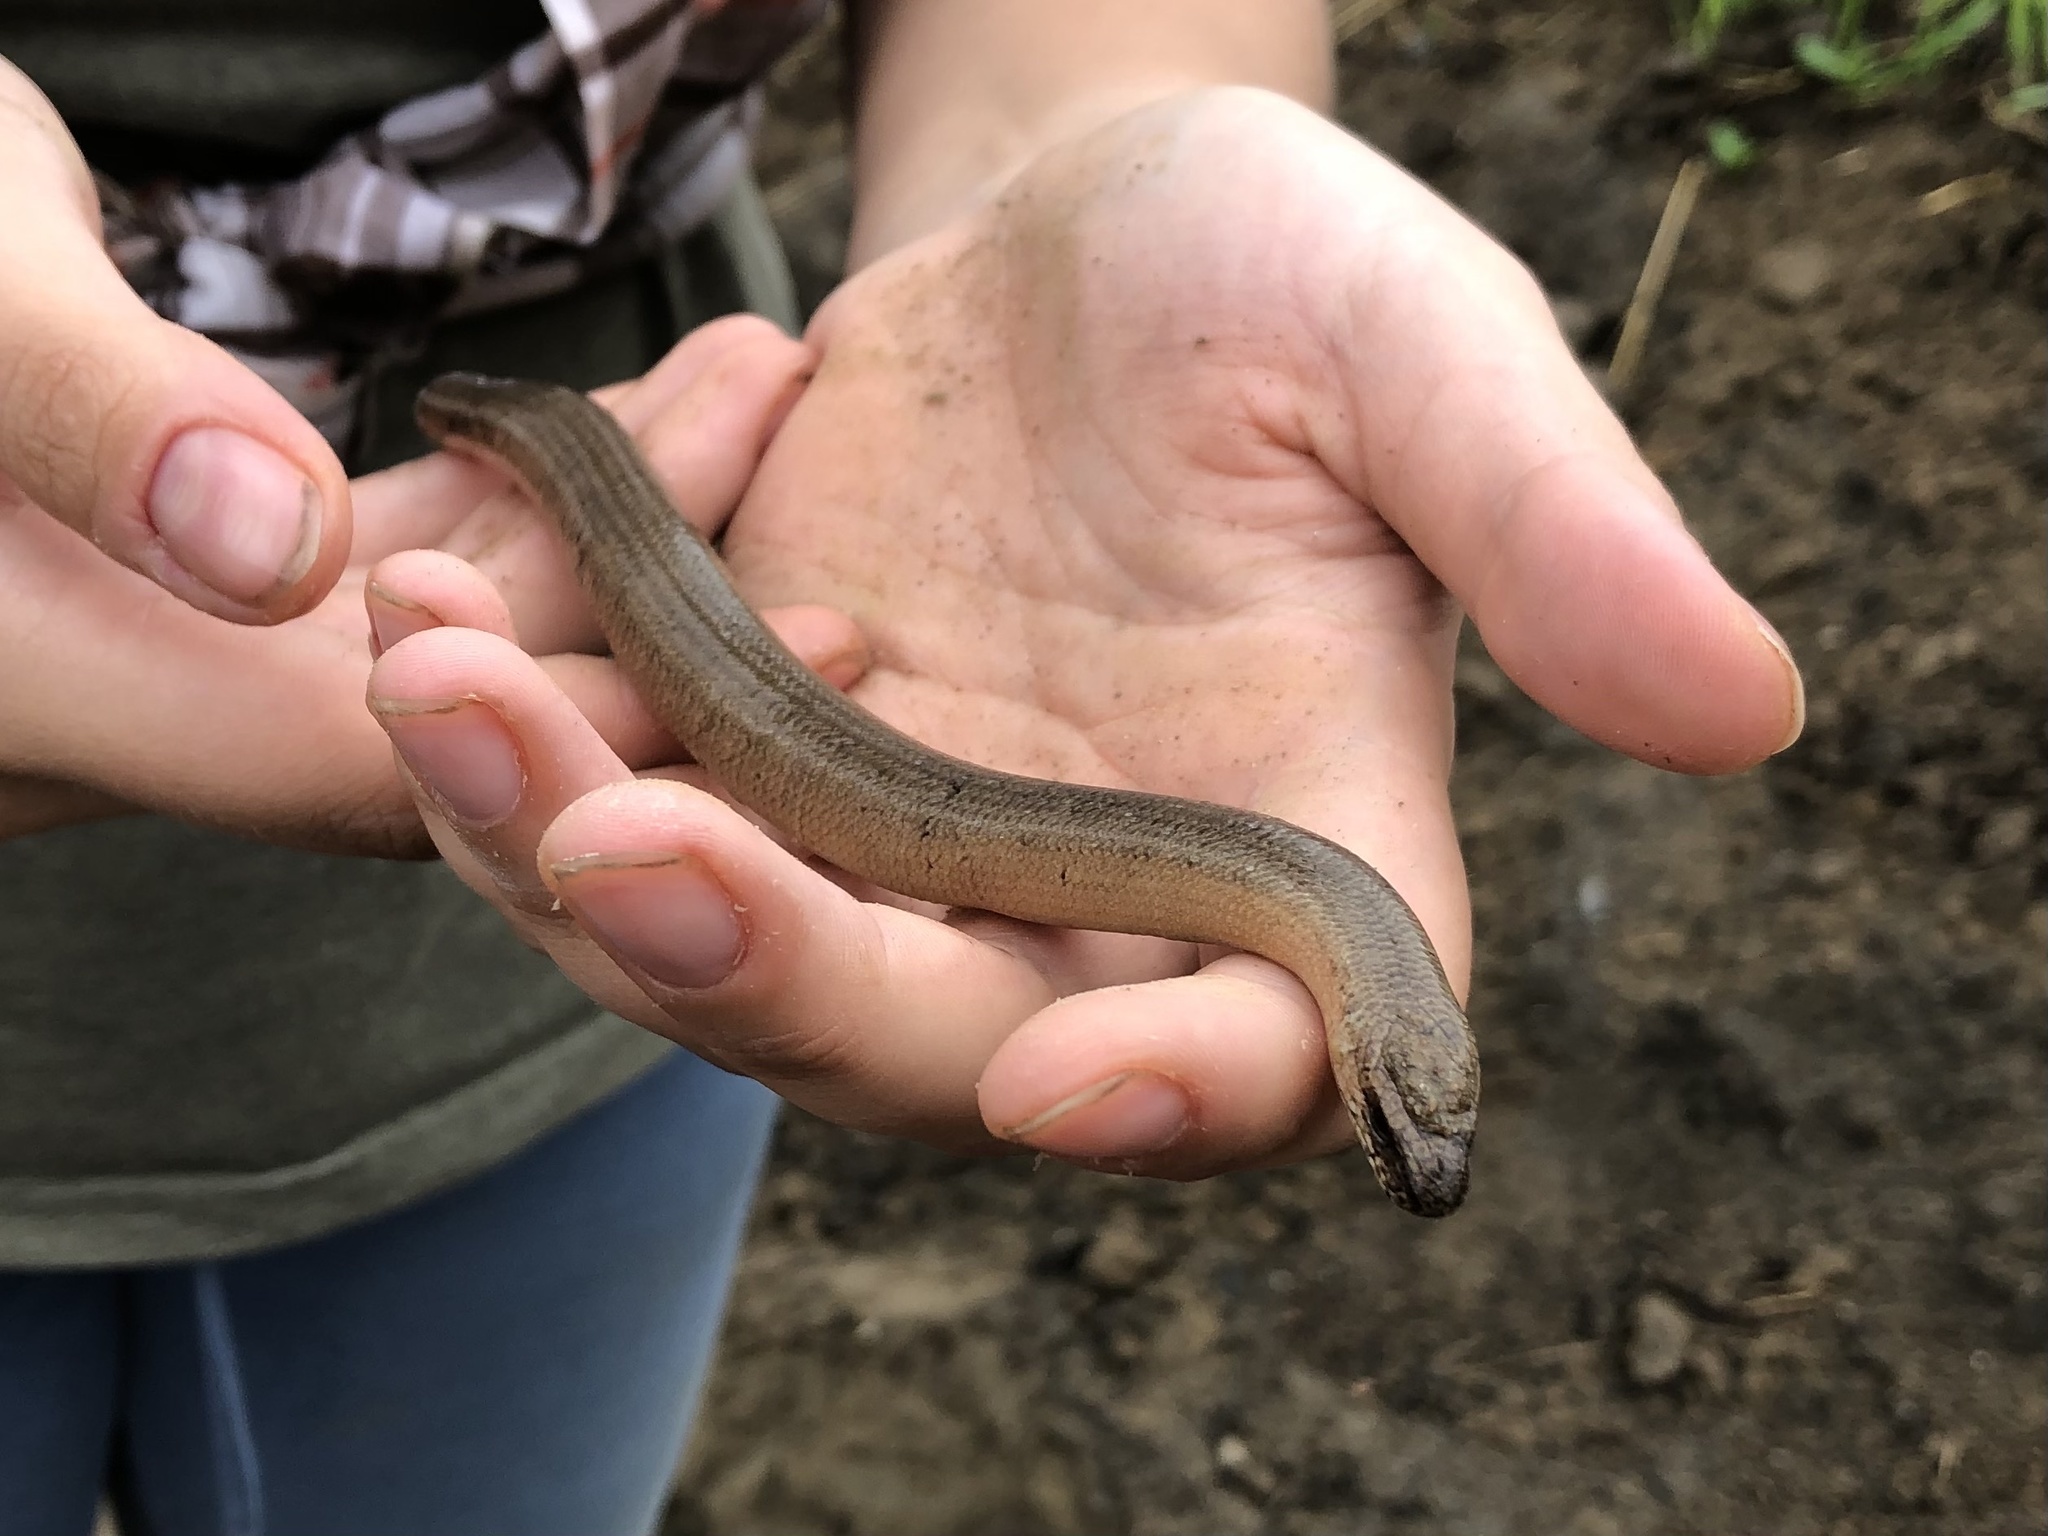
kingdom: Animalia
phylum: Chordata
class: Squamata
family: Anguidae
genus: Anguis
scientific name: Anguis fragilis
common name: Slow worm
